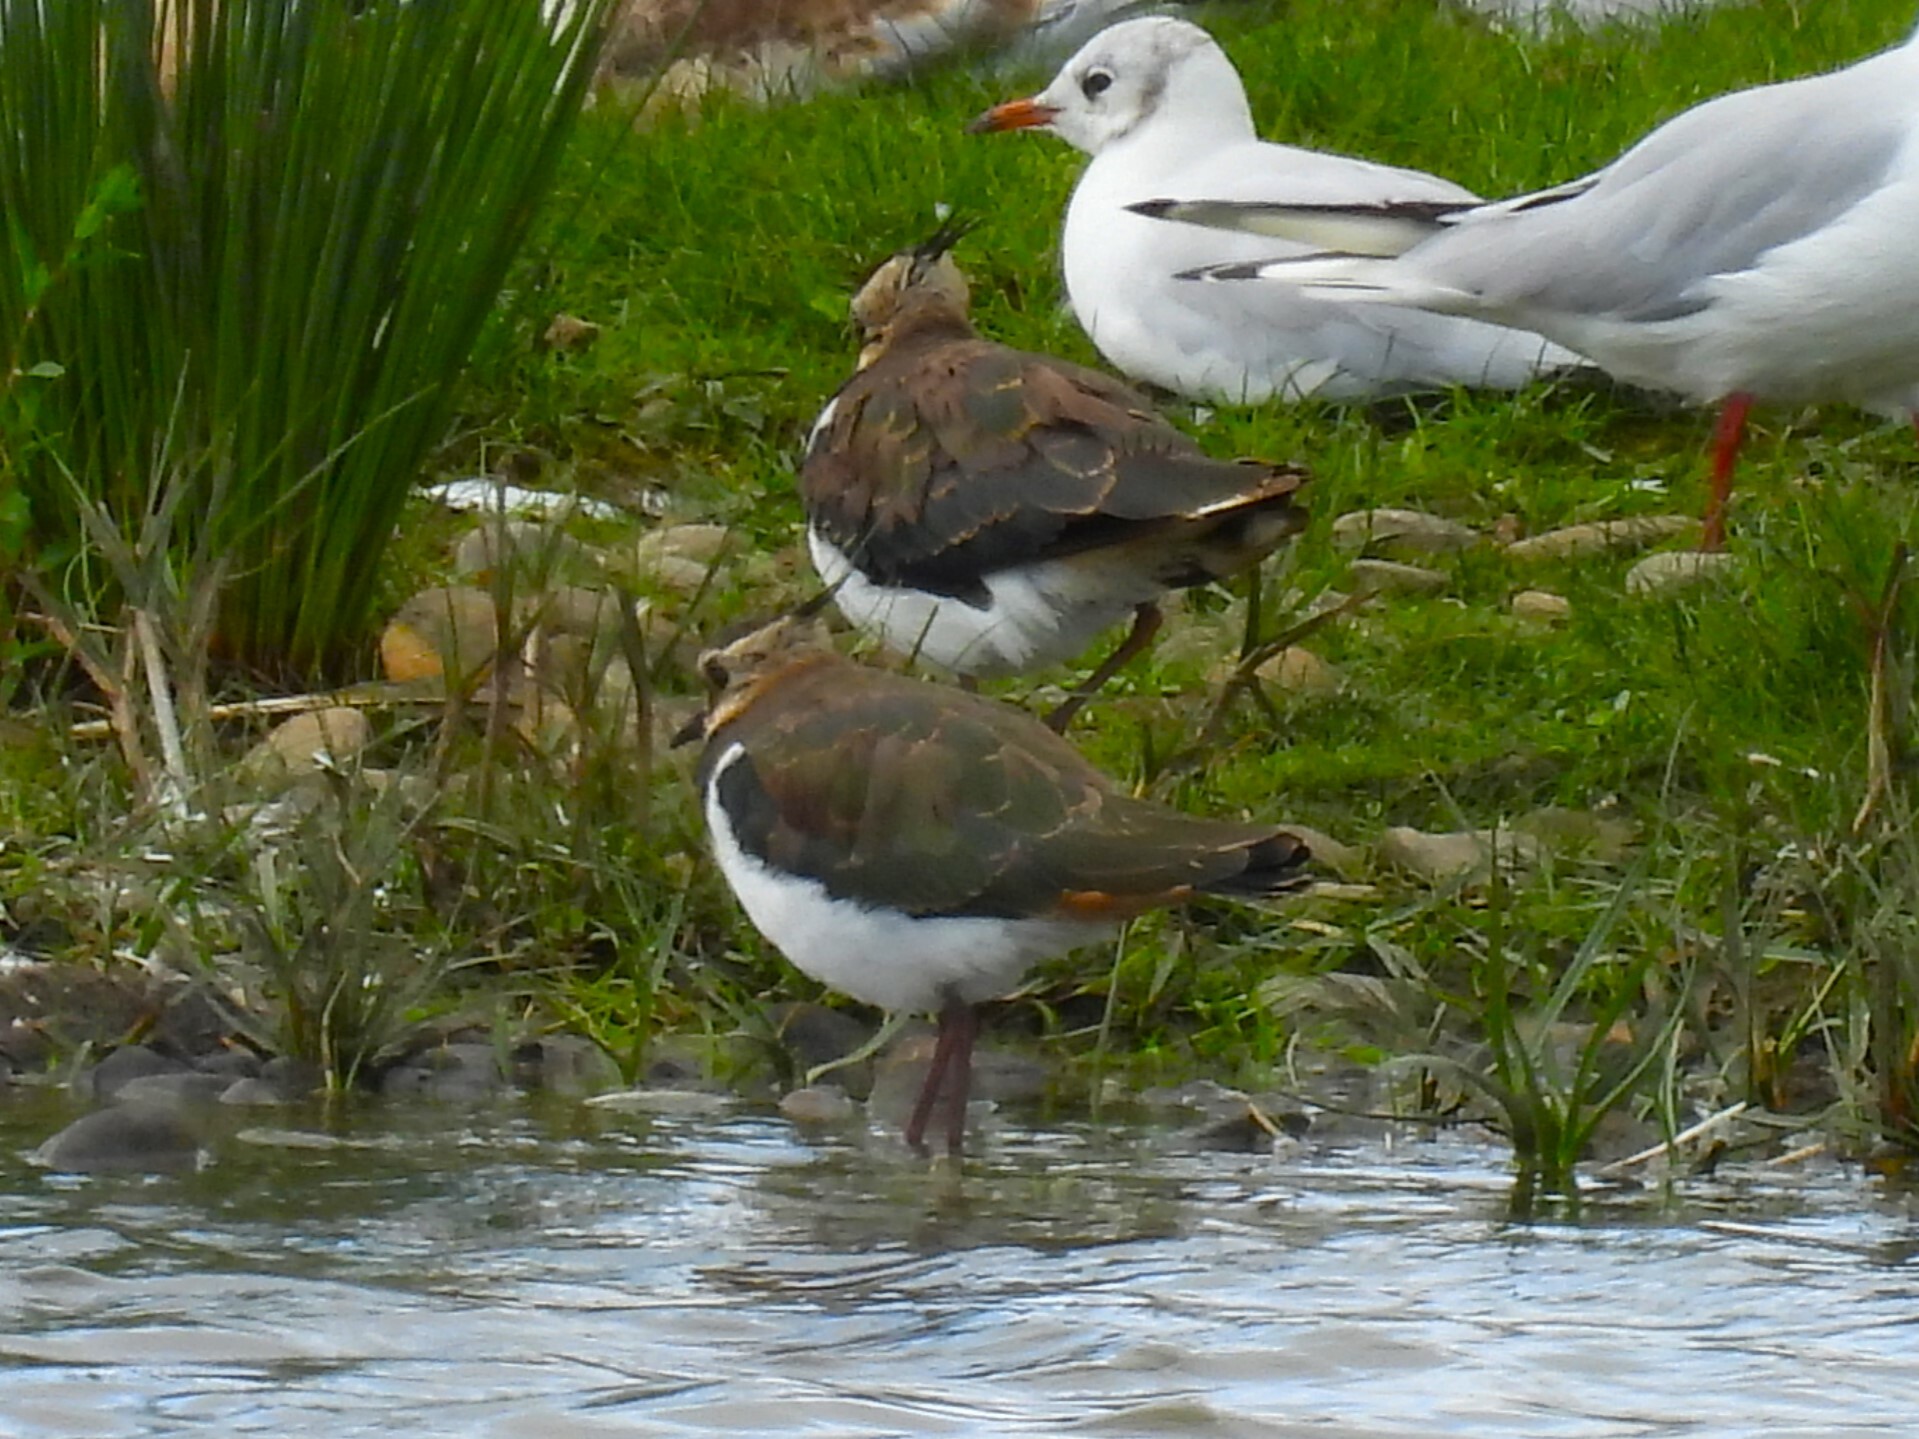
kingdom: Animalia
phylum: Chordata
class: Aves
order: Charadriiformes
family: Charadriidae
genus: Vanellus
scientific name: Vanellus vanellus
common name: Northern lapwing
